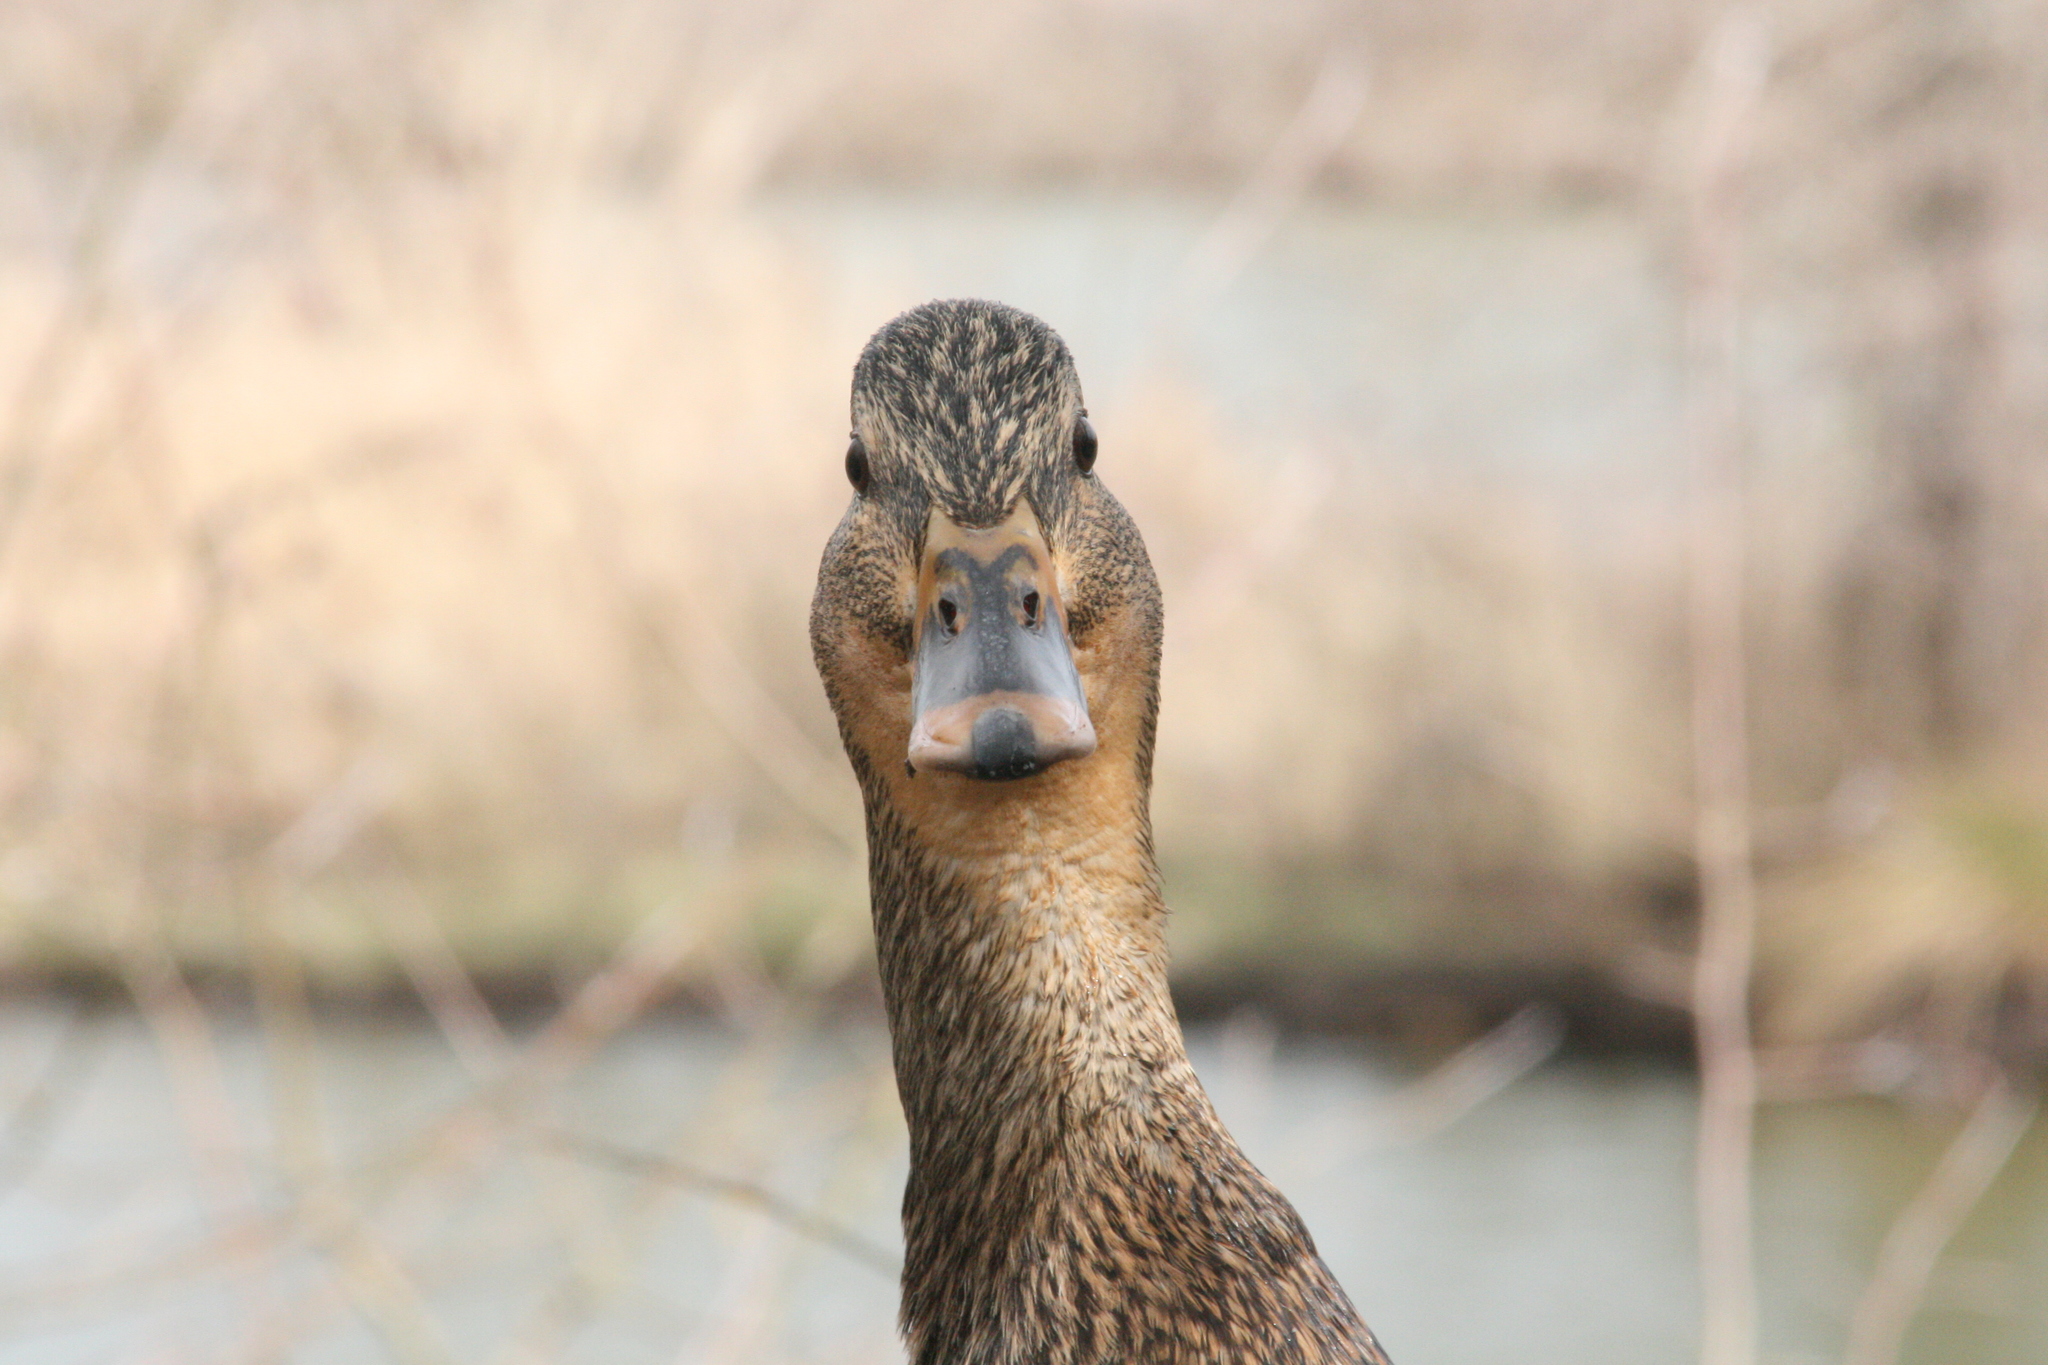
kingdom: Animalia
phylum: Chordata
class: Aves
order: Anseriformes
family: Anatidae
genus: Anas
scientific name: Anas platyrhynchos
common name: Mallard
